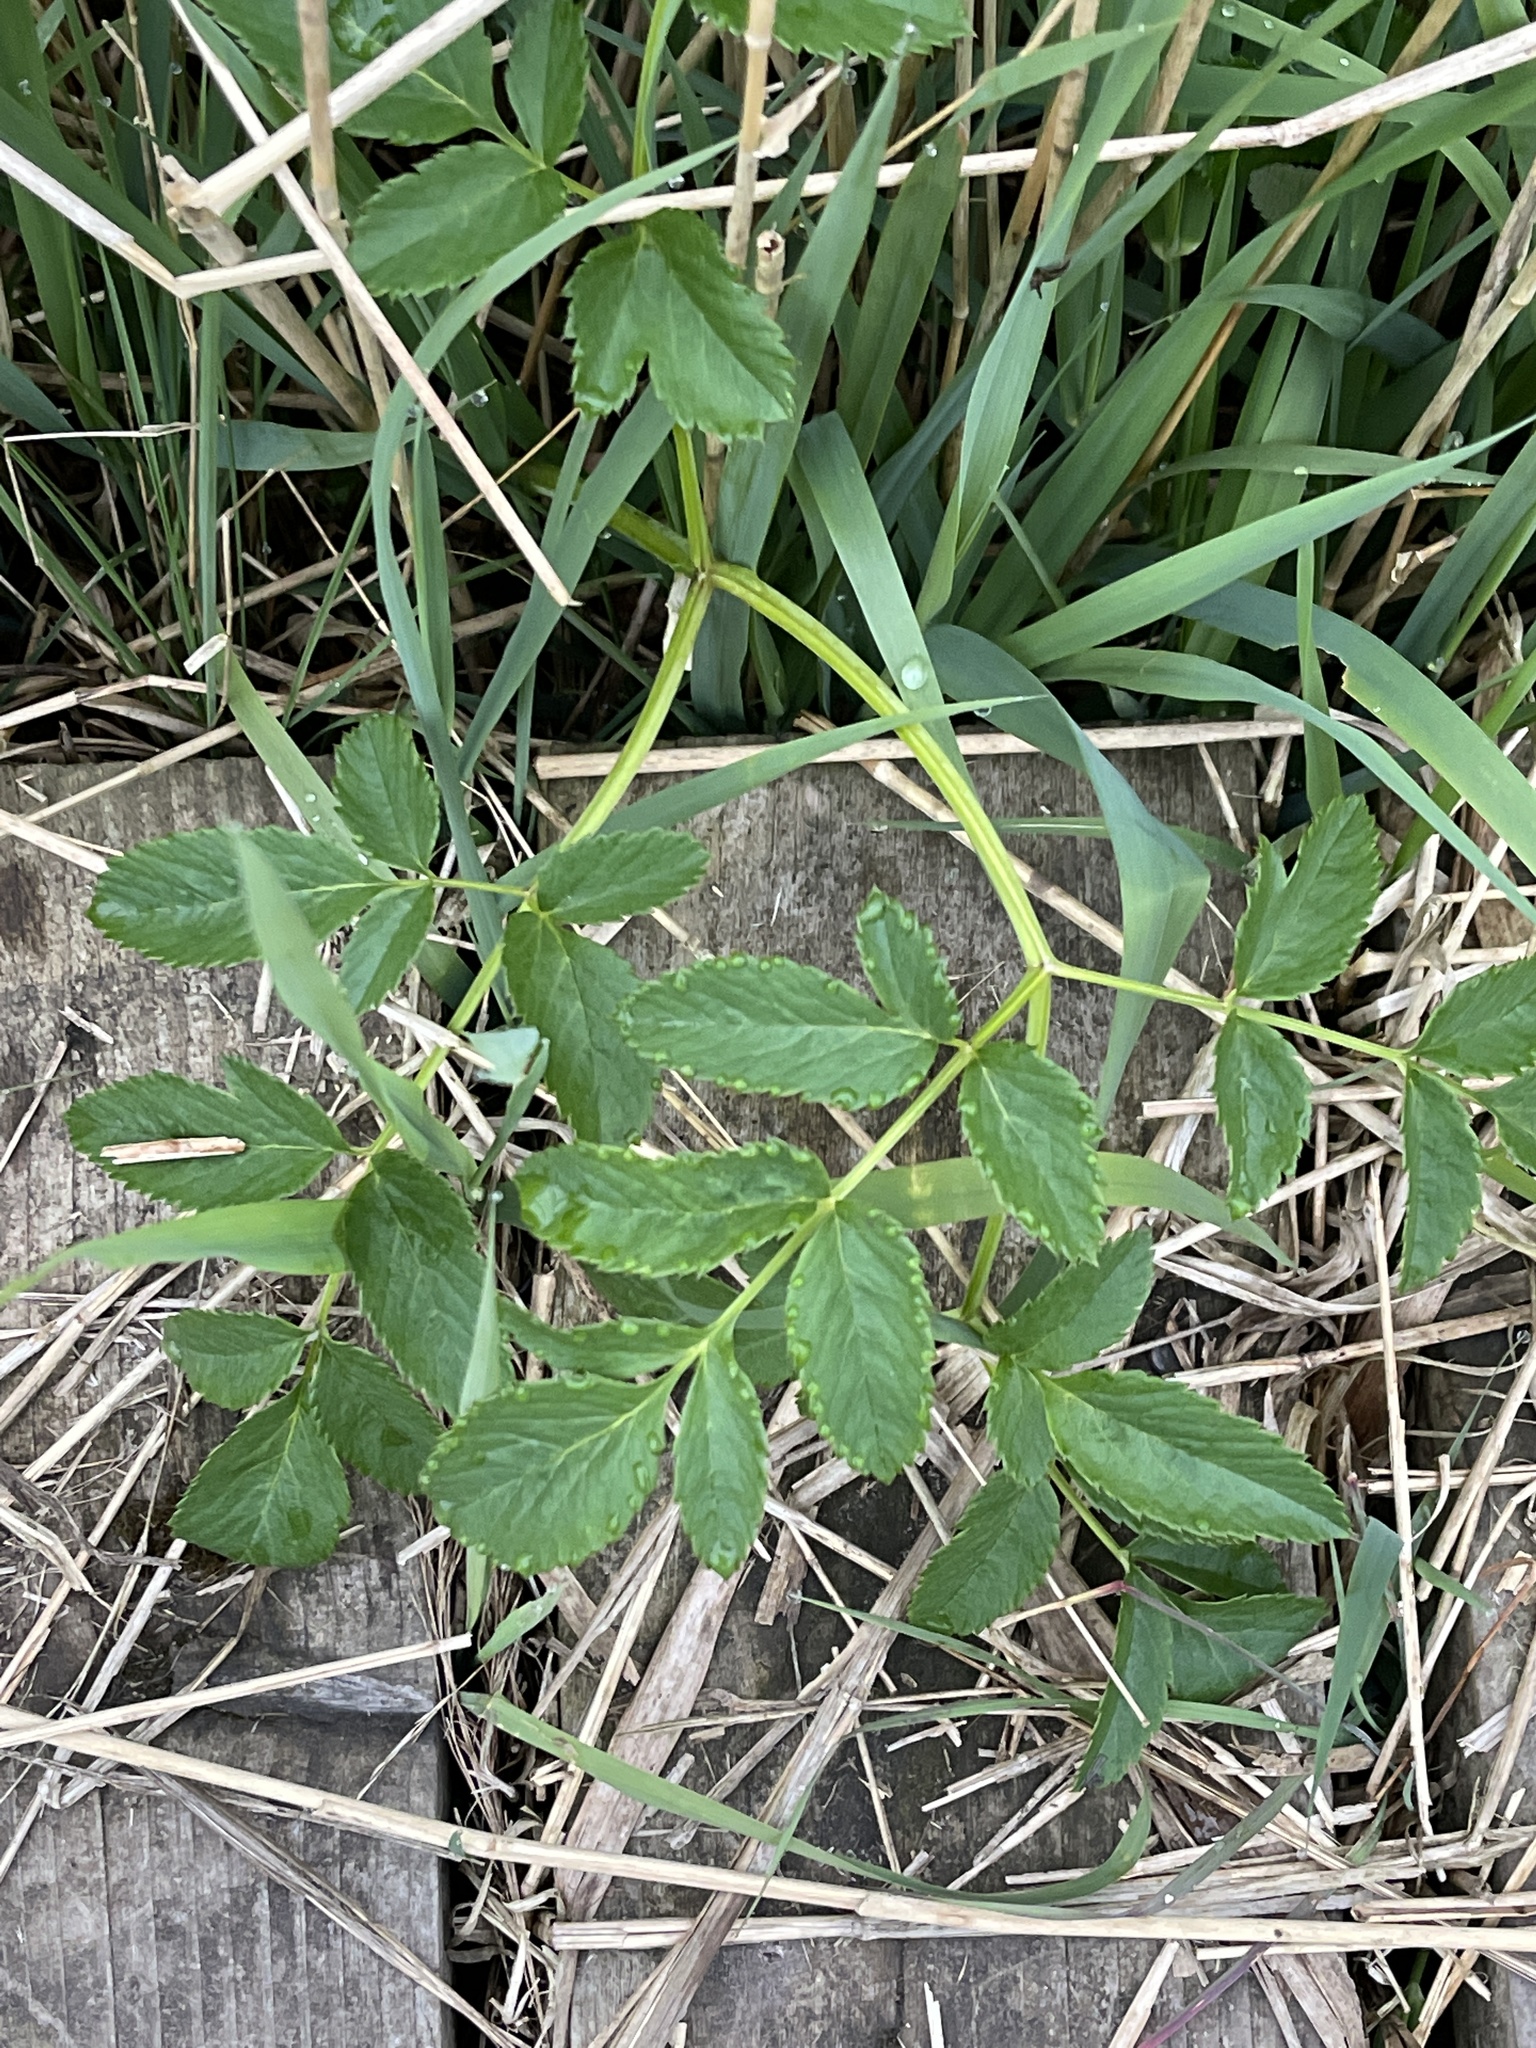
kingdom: Plantae
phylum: Tracheophyta
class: Magnoliopsida
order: Apiales
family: Apiaceae
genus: Angelica
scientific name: Angelica sylvestris
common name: Wild angelica
